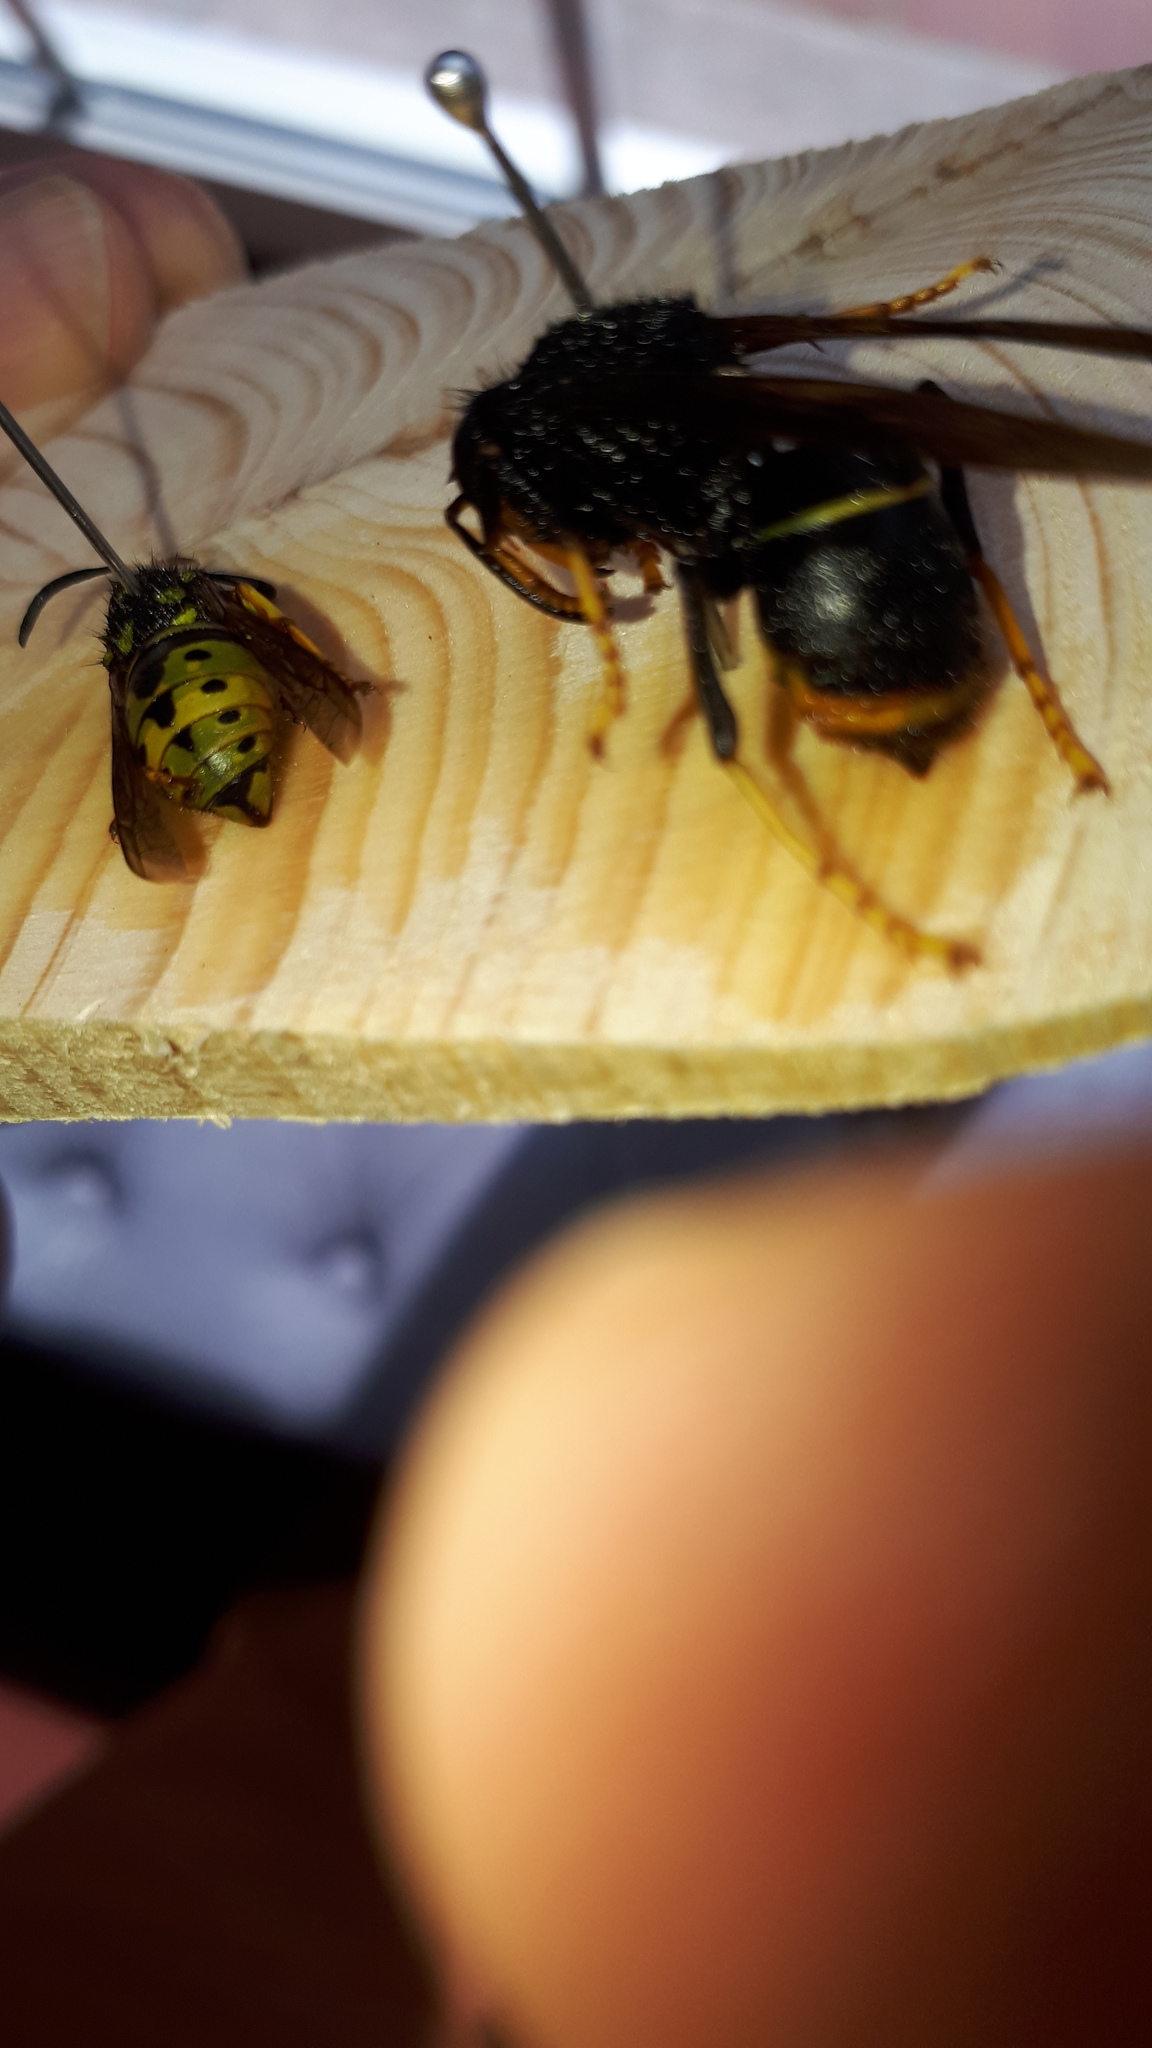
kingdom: Animalia
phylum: Arthropoda
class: Insecta
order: Hymenoptera
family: Vespidae
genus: Vespa
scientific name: Vespa velutina
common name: Asian hornet
